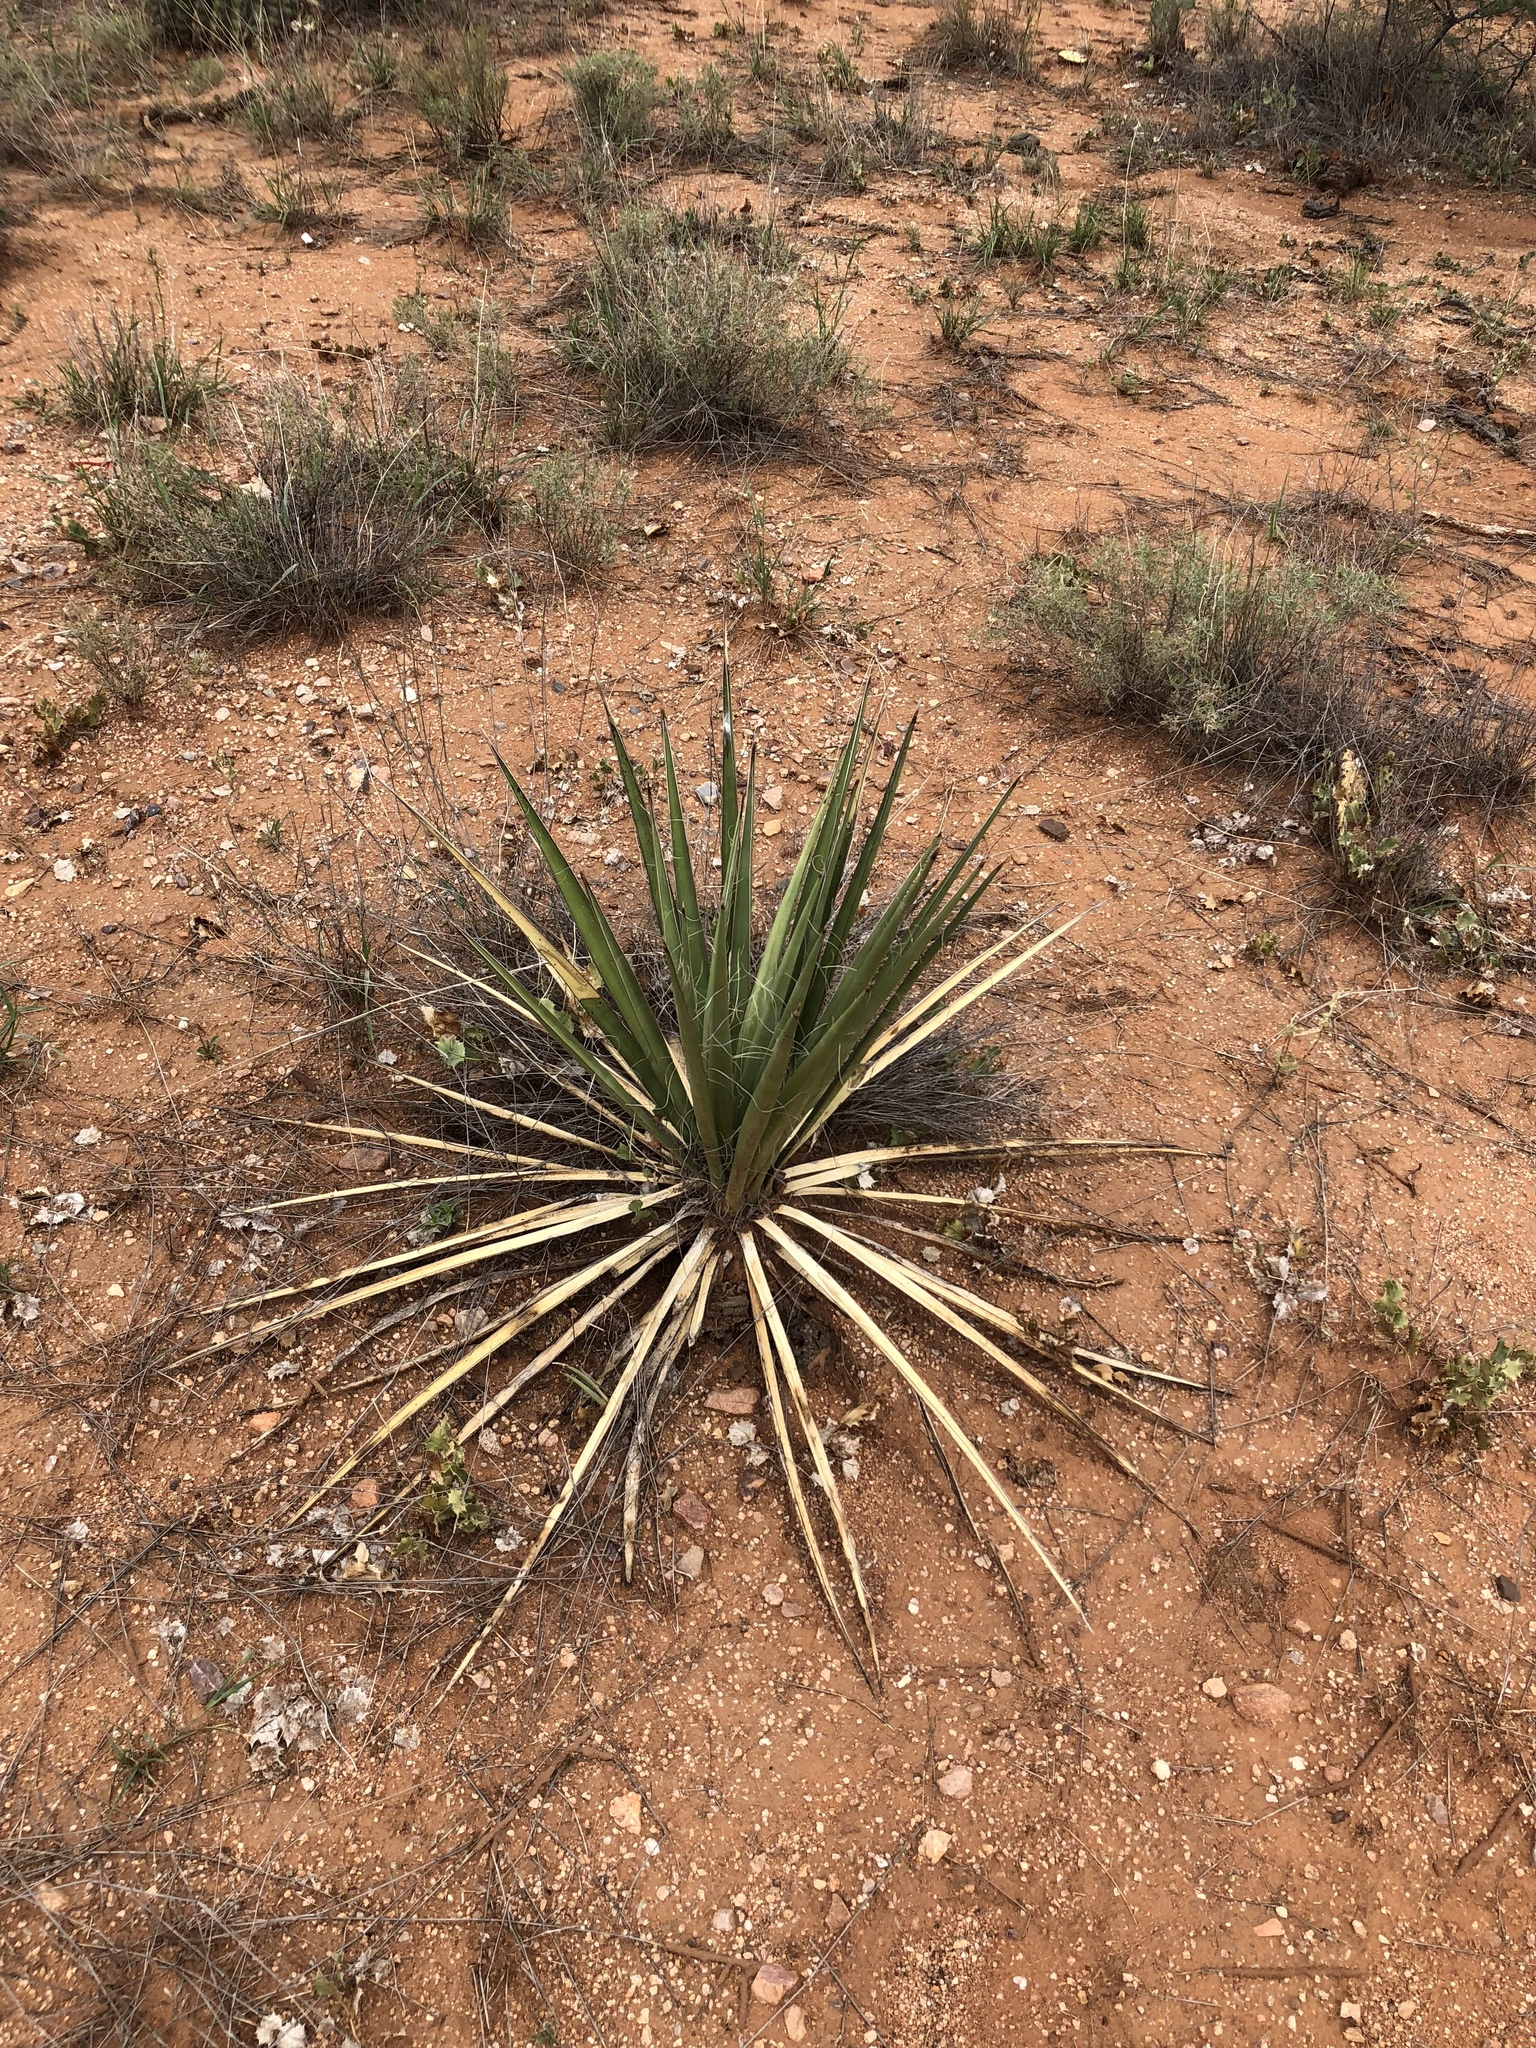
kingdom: Plantae
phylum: Tracheophyta
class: Liliopsida
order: Asparagales
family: Asparagaceae
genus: Yucca
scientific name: Yucca baccata
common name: Banana yucca
